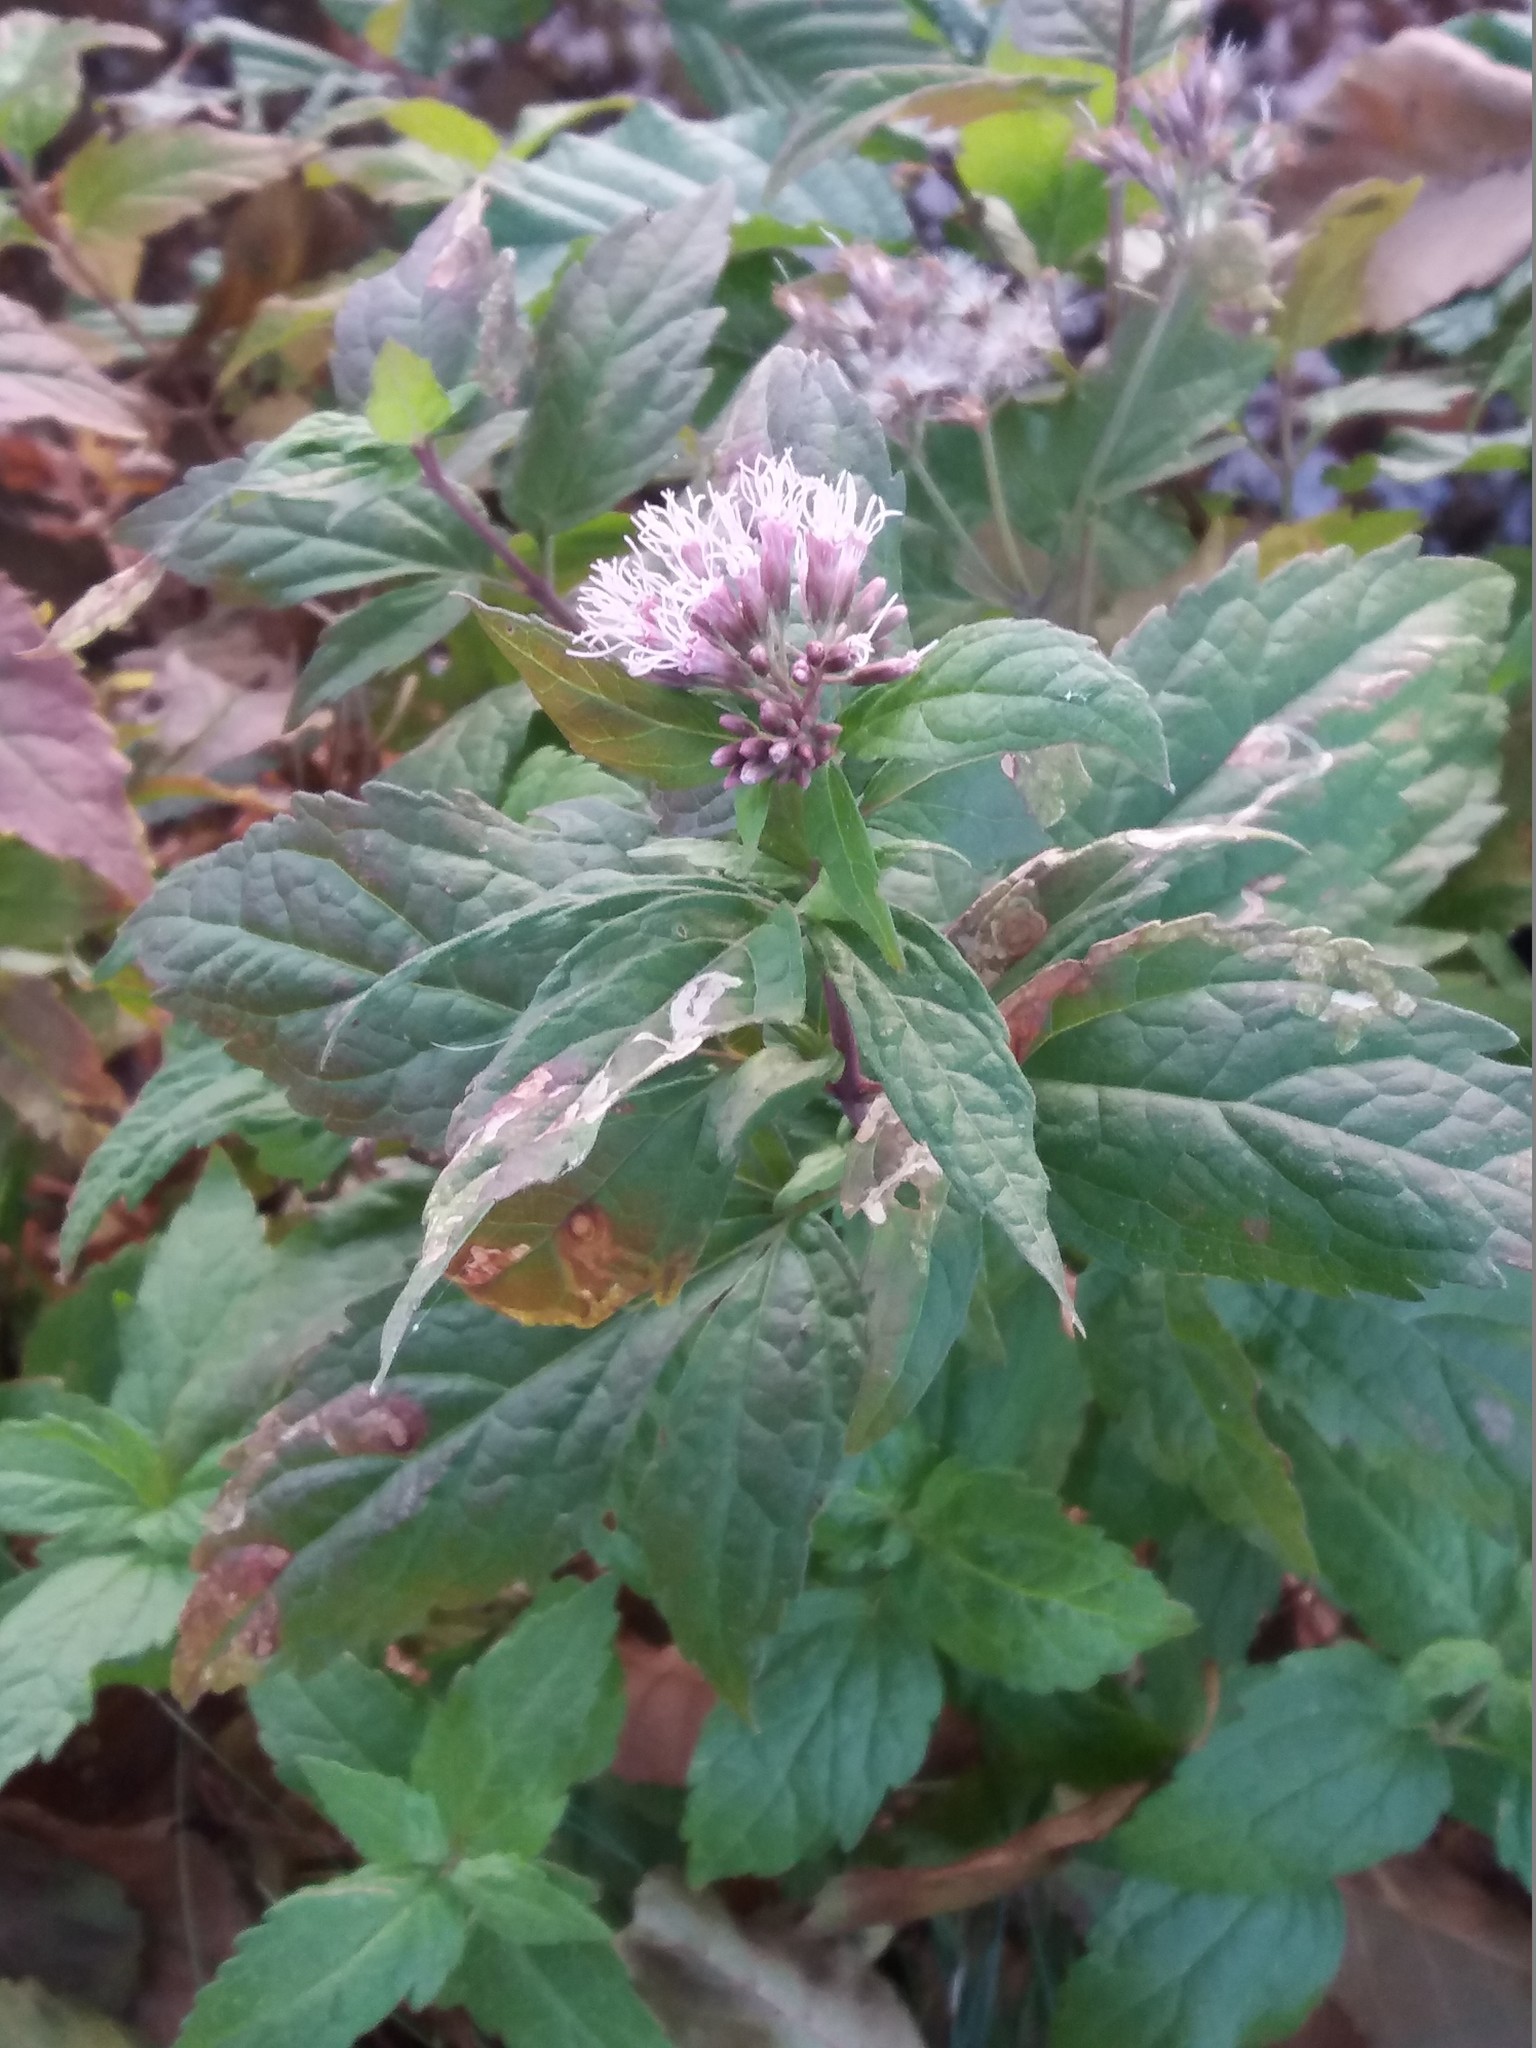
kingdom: Plantae
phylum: Tracheophyta
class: Magnoliopsida
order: Asterales
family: Asteraceae
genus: Eupatorium
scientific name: Eupatorium cannabinum
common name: Hemp-agrimony
